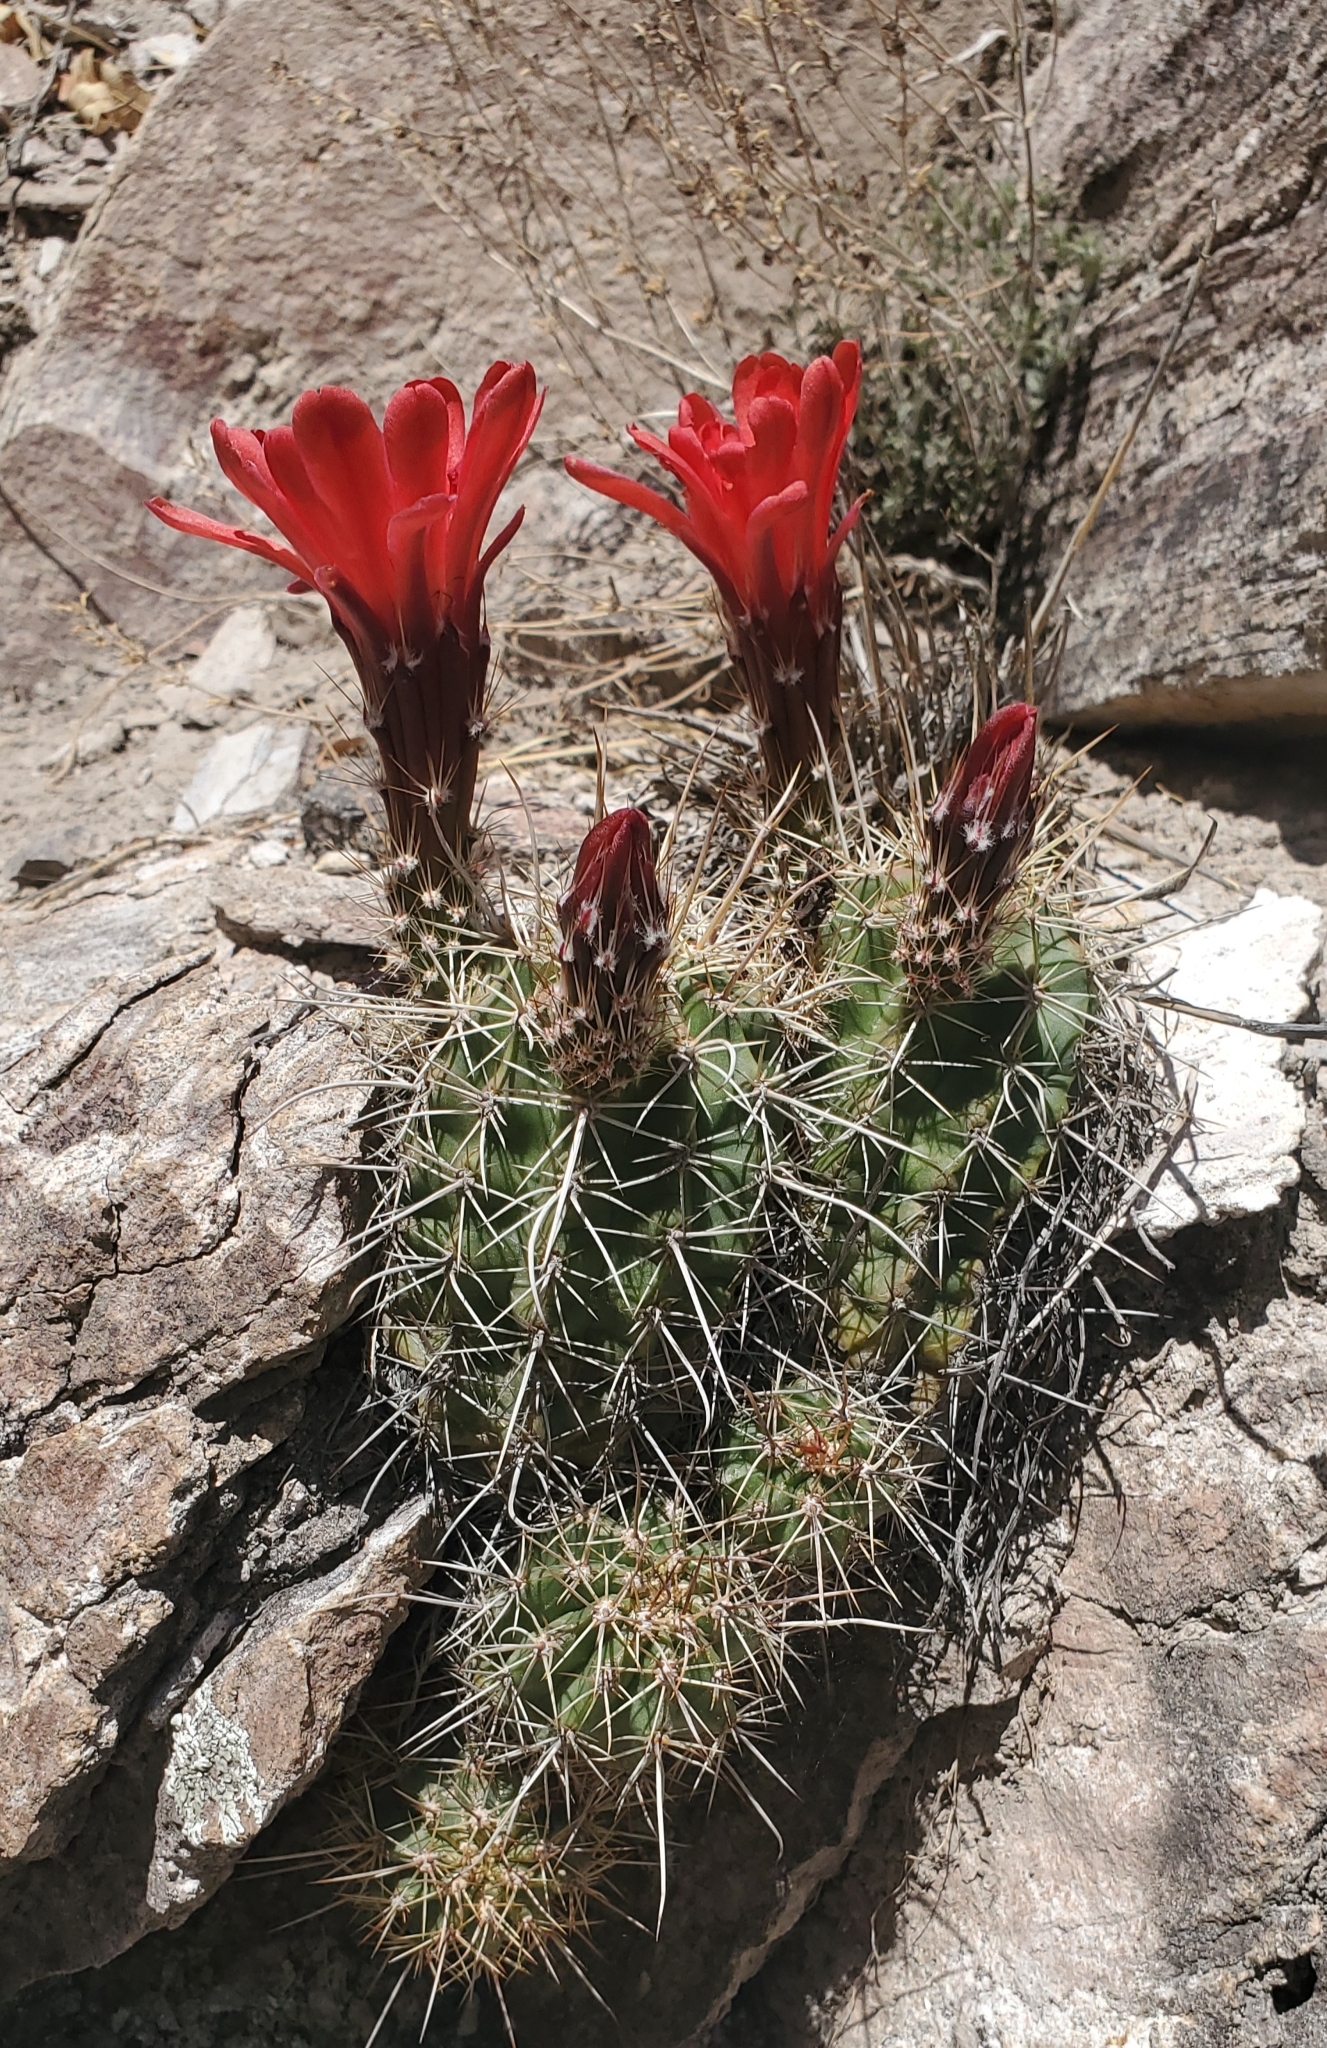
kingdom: Plantae
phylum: Tracheophyta
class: Magnoliopsida
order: Caryophyllales
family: Cactaceae
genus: Echinocereus
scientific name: Echinocereus coccineus
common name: Scarlet hedgehog cactus
